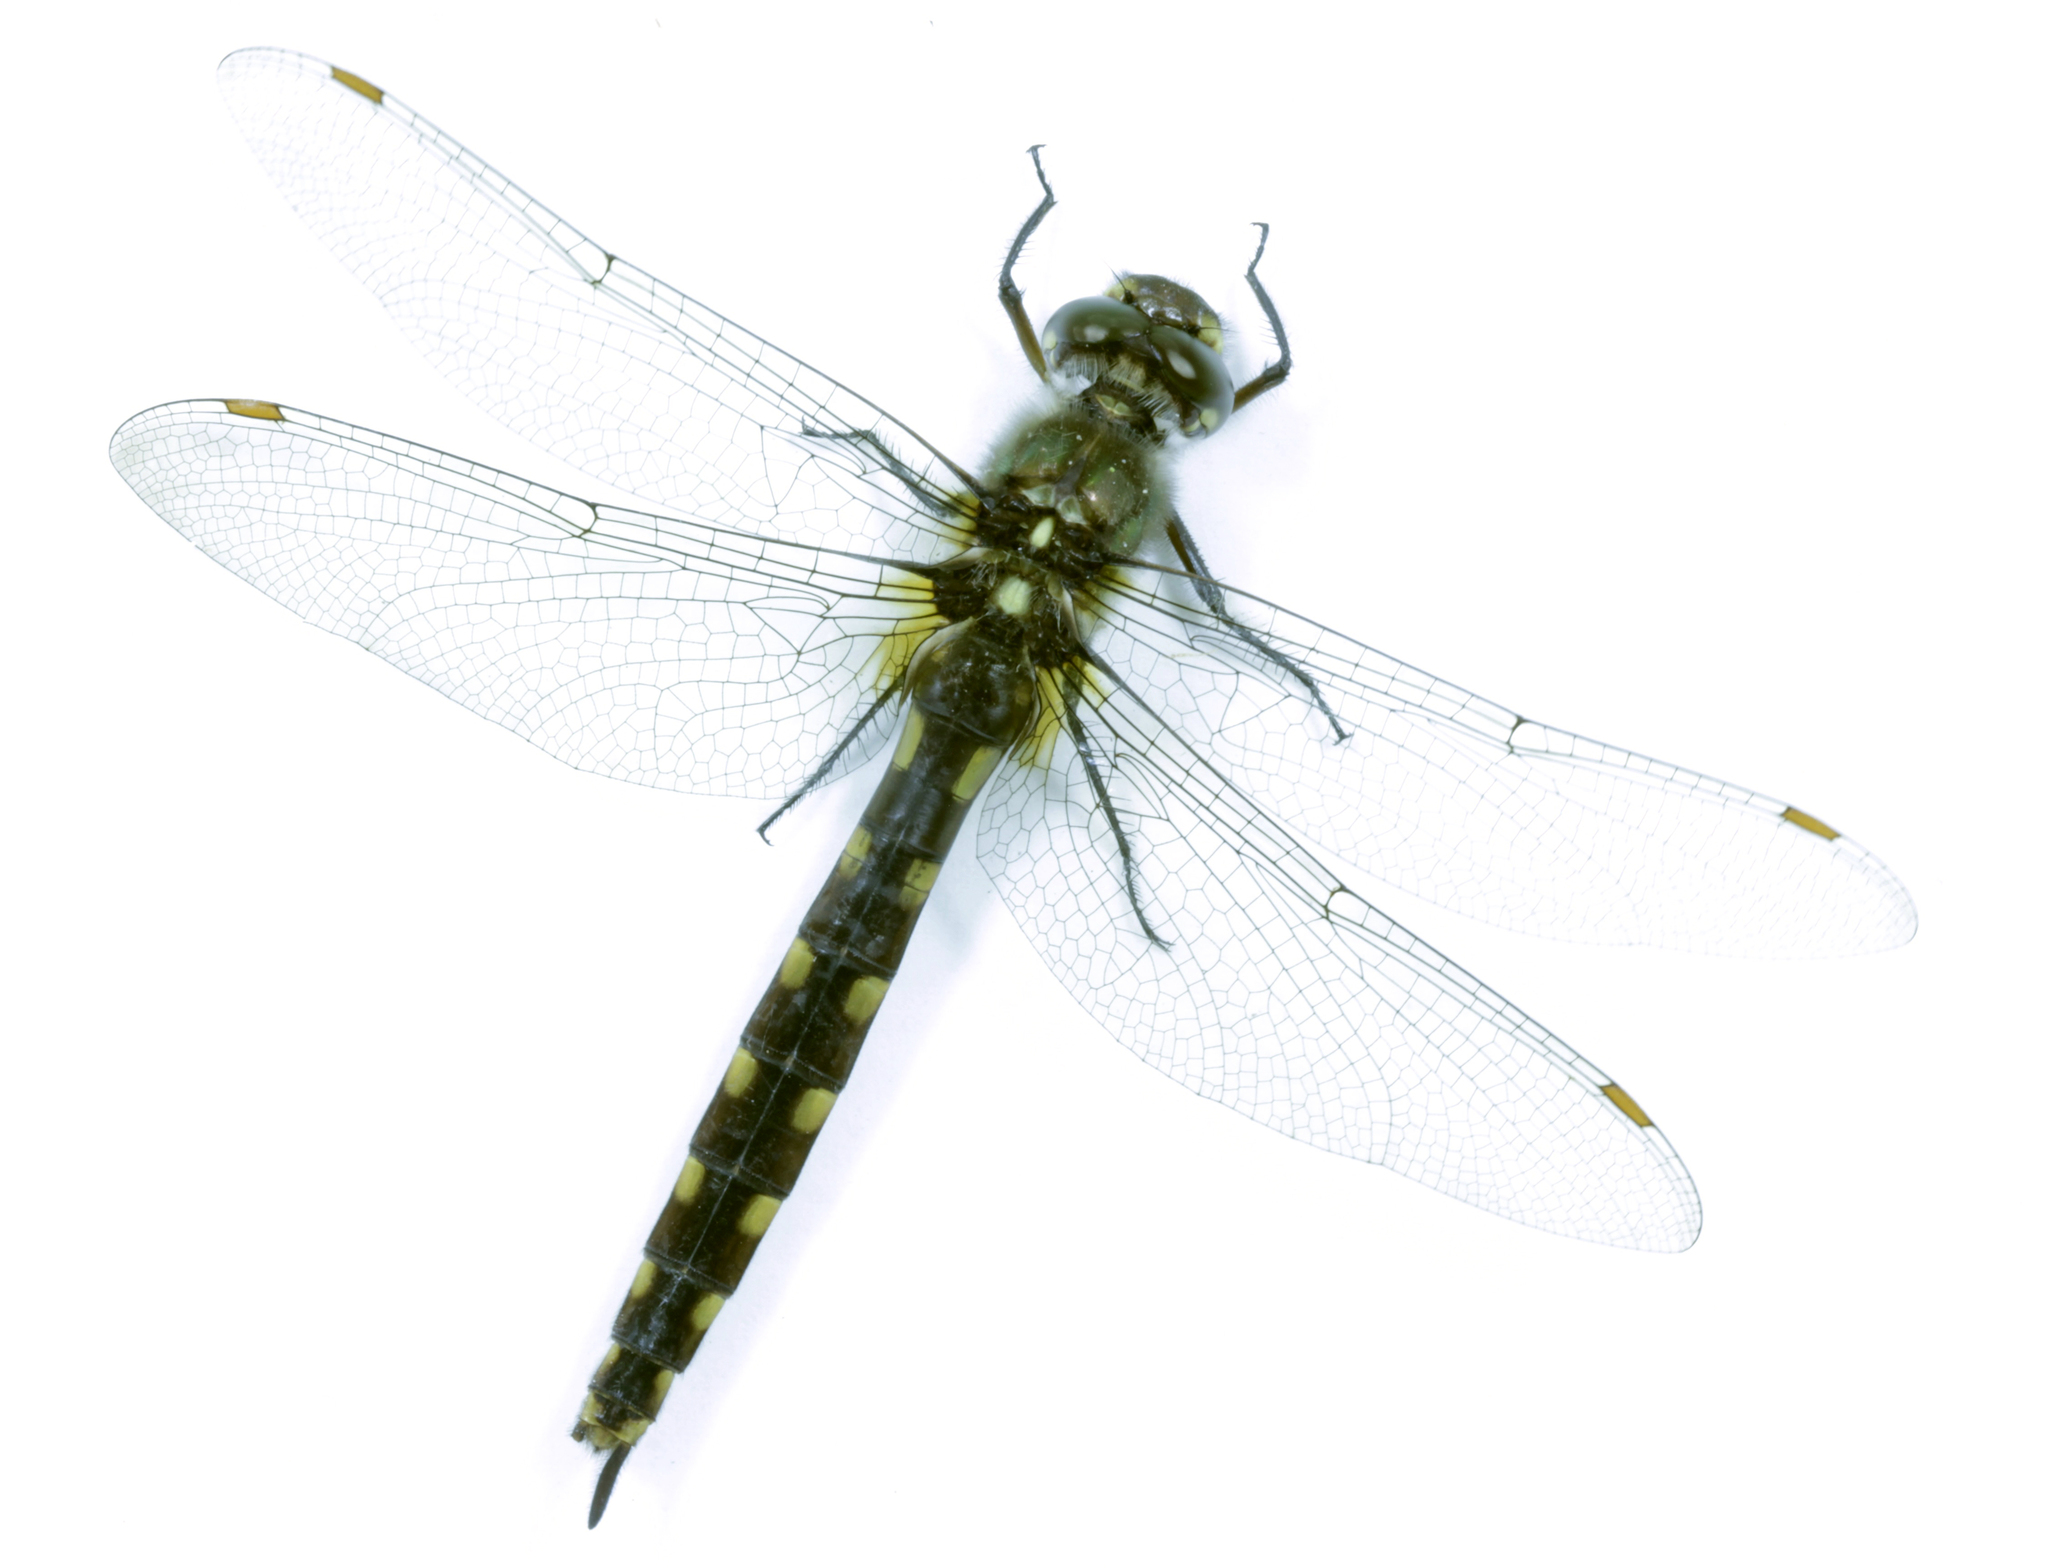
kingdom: Animalia
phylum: Arthropoda
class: Insecta
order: Odonata
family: Corduliidae
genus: Procordulia
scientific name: Procordulia grayi
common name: Yellow spotted dragonfly
